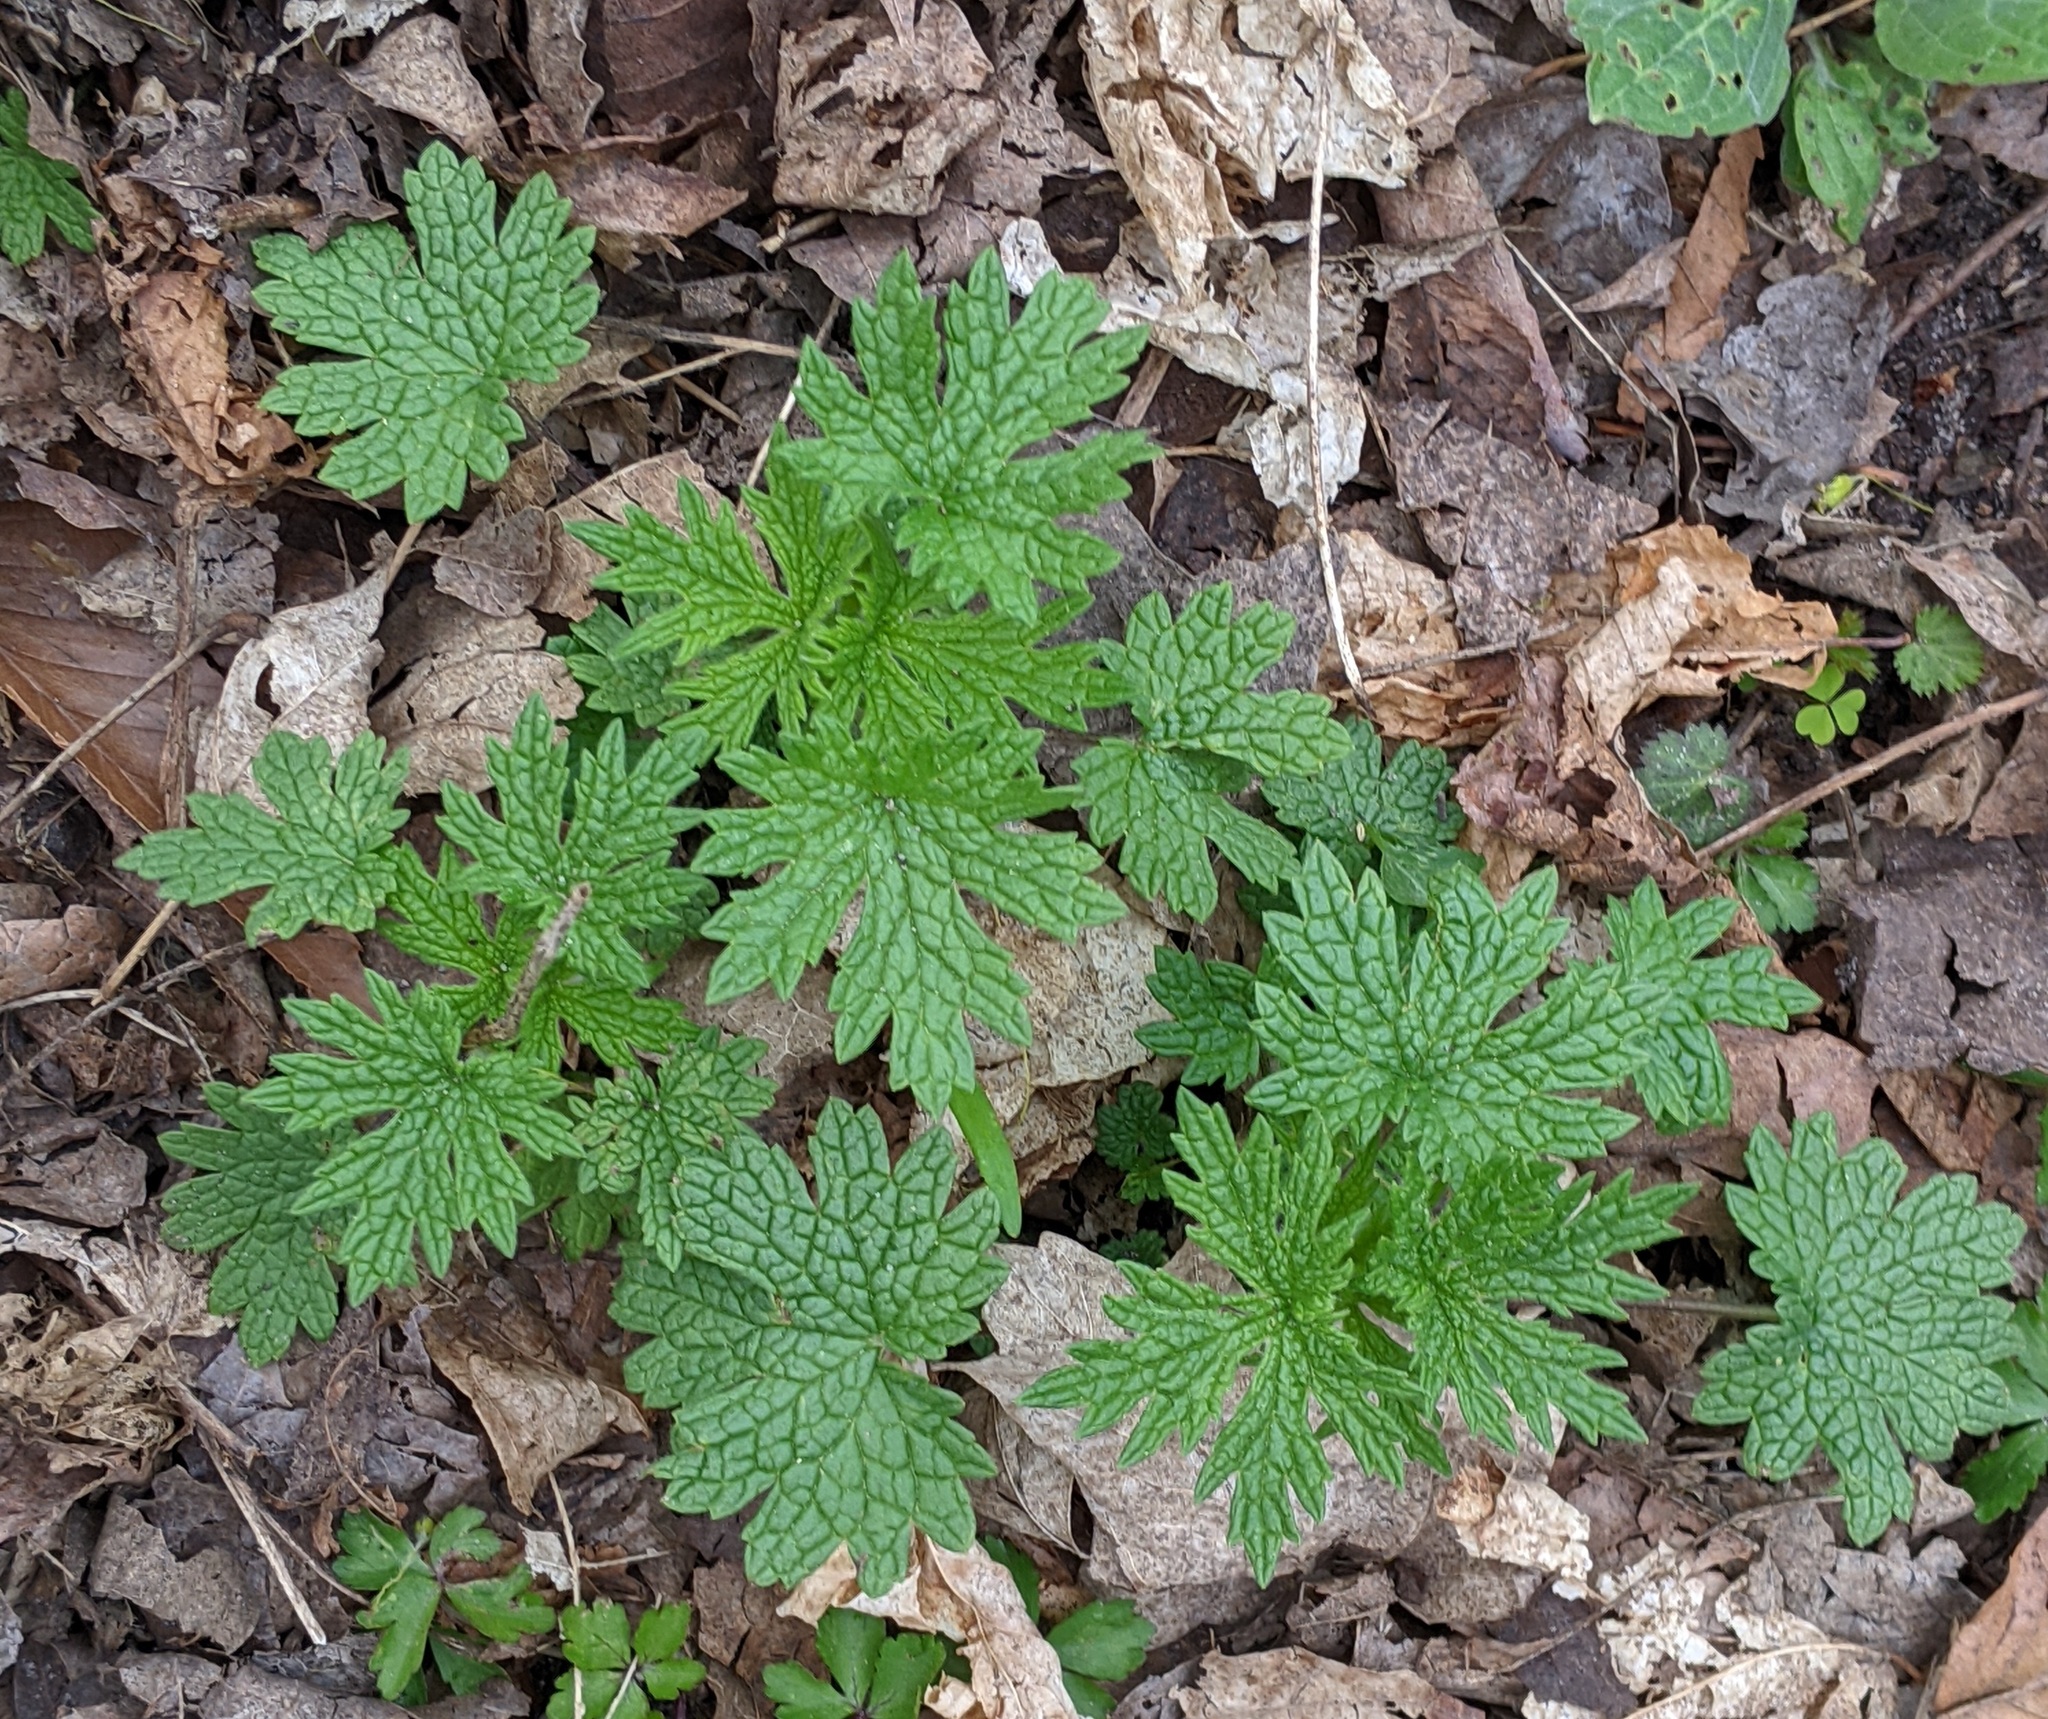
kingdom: Plantae
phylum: Tracheophyta
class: Magnoliopsida
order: Lamiales
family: Lamiaceae
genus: Leonurus
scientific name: Leonurus cardiaca
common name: Motherwort
